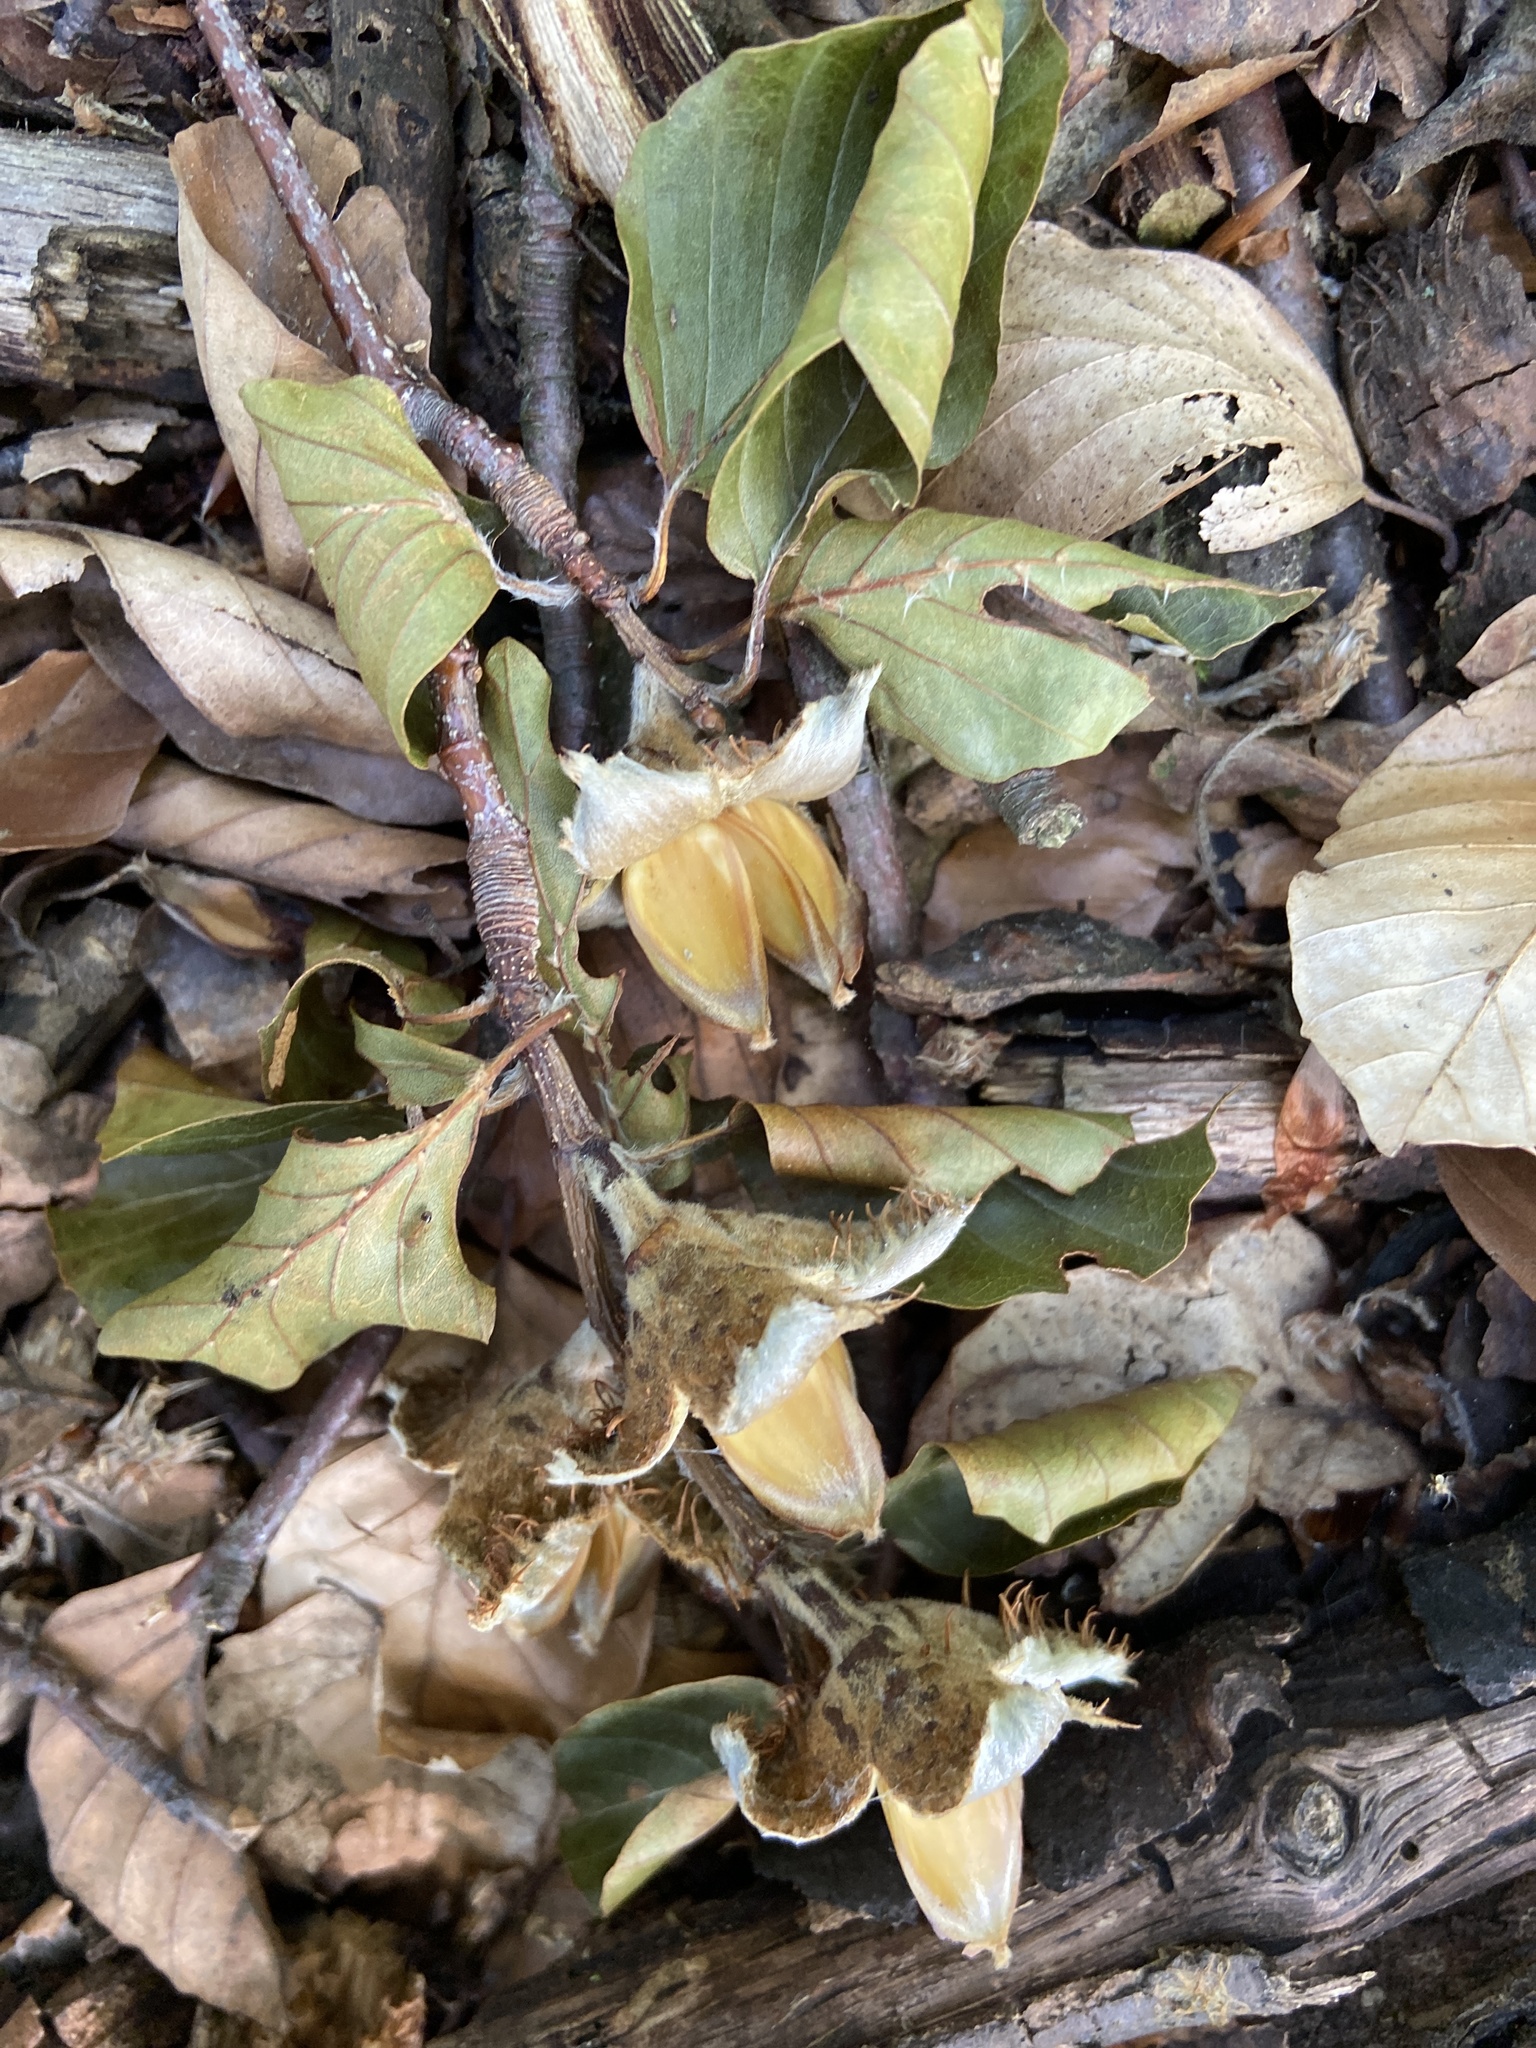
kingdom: Plantae
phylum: Tracheophyta
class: Magnoliopsida
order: Fagales
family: Fagaceae
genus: Fagus
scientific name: Fagus sylvatica
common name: Beech
